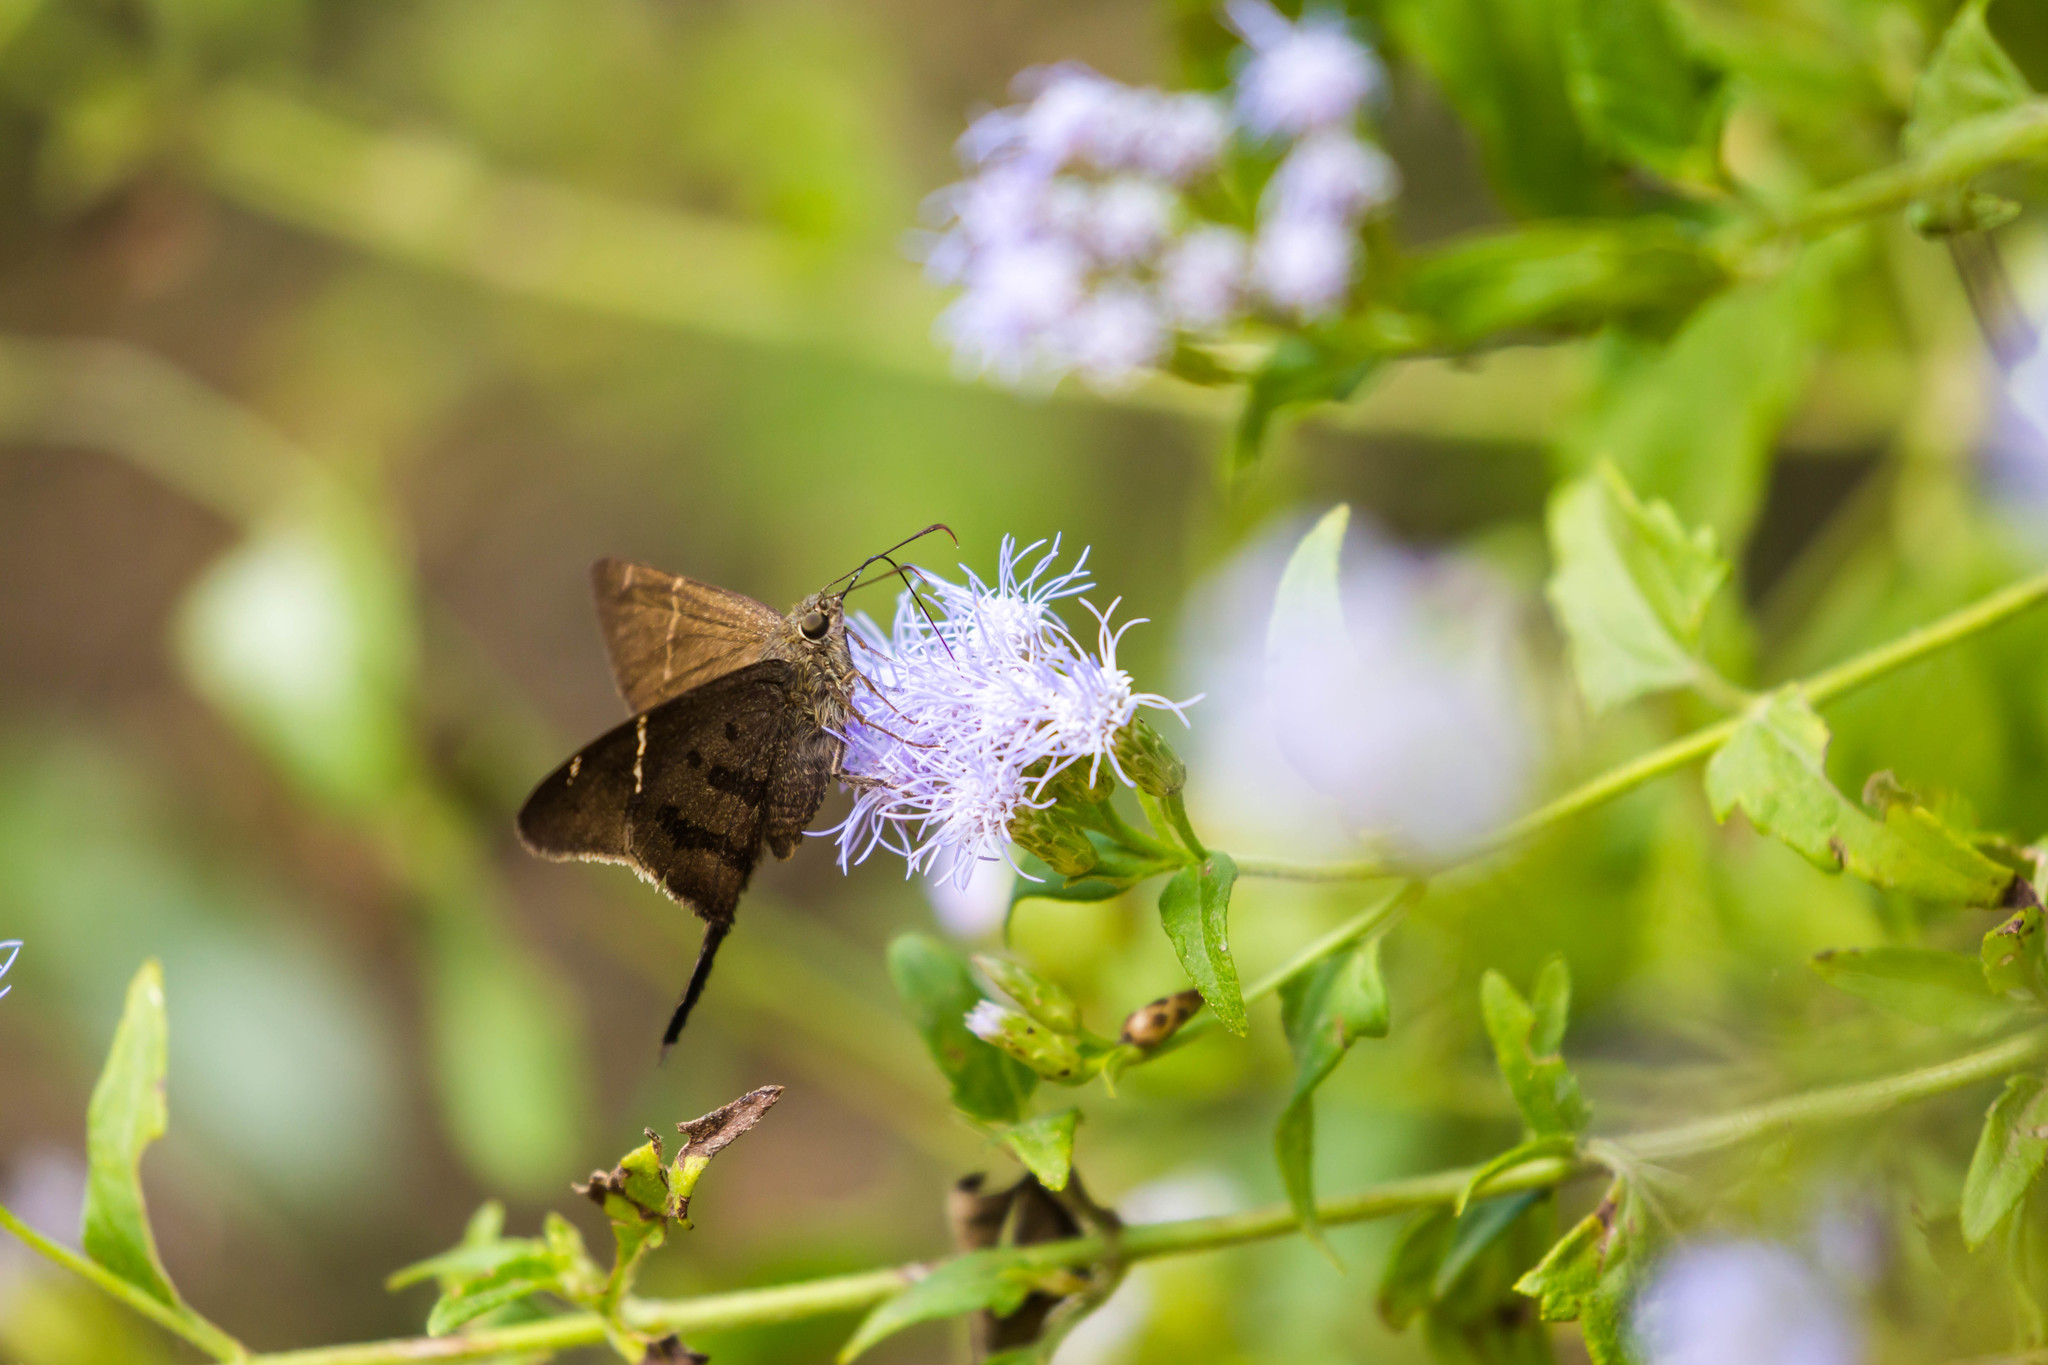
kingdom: Animalia
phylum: Arthropoda
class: Insecta
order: Lepidoptera
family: Hesperiidae
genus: Urbanus
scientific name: Urbanus procne
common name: Brown longtail
